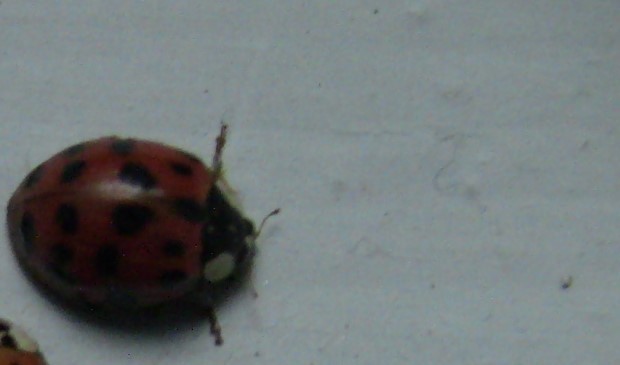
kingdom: Animalia
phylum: Arthropoda
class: Insecta
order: Coleoptera
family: Coccinellidae
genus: Harmonia
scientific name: Harmonia axyridis
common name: Harlequin ladybird
